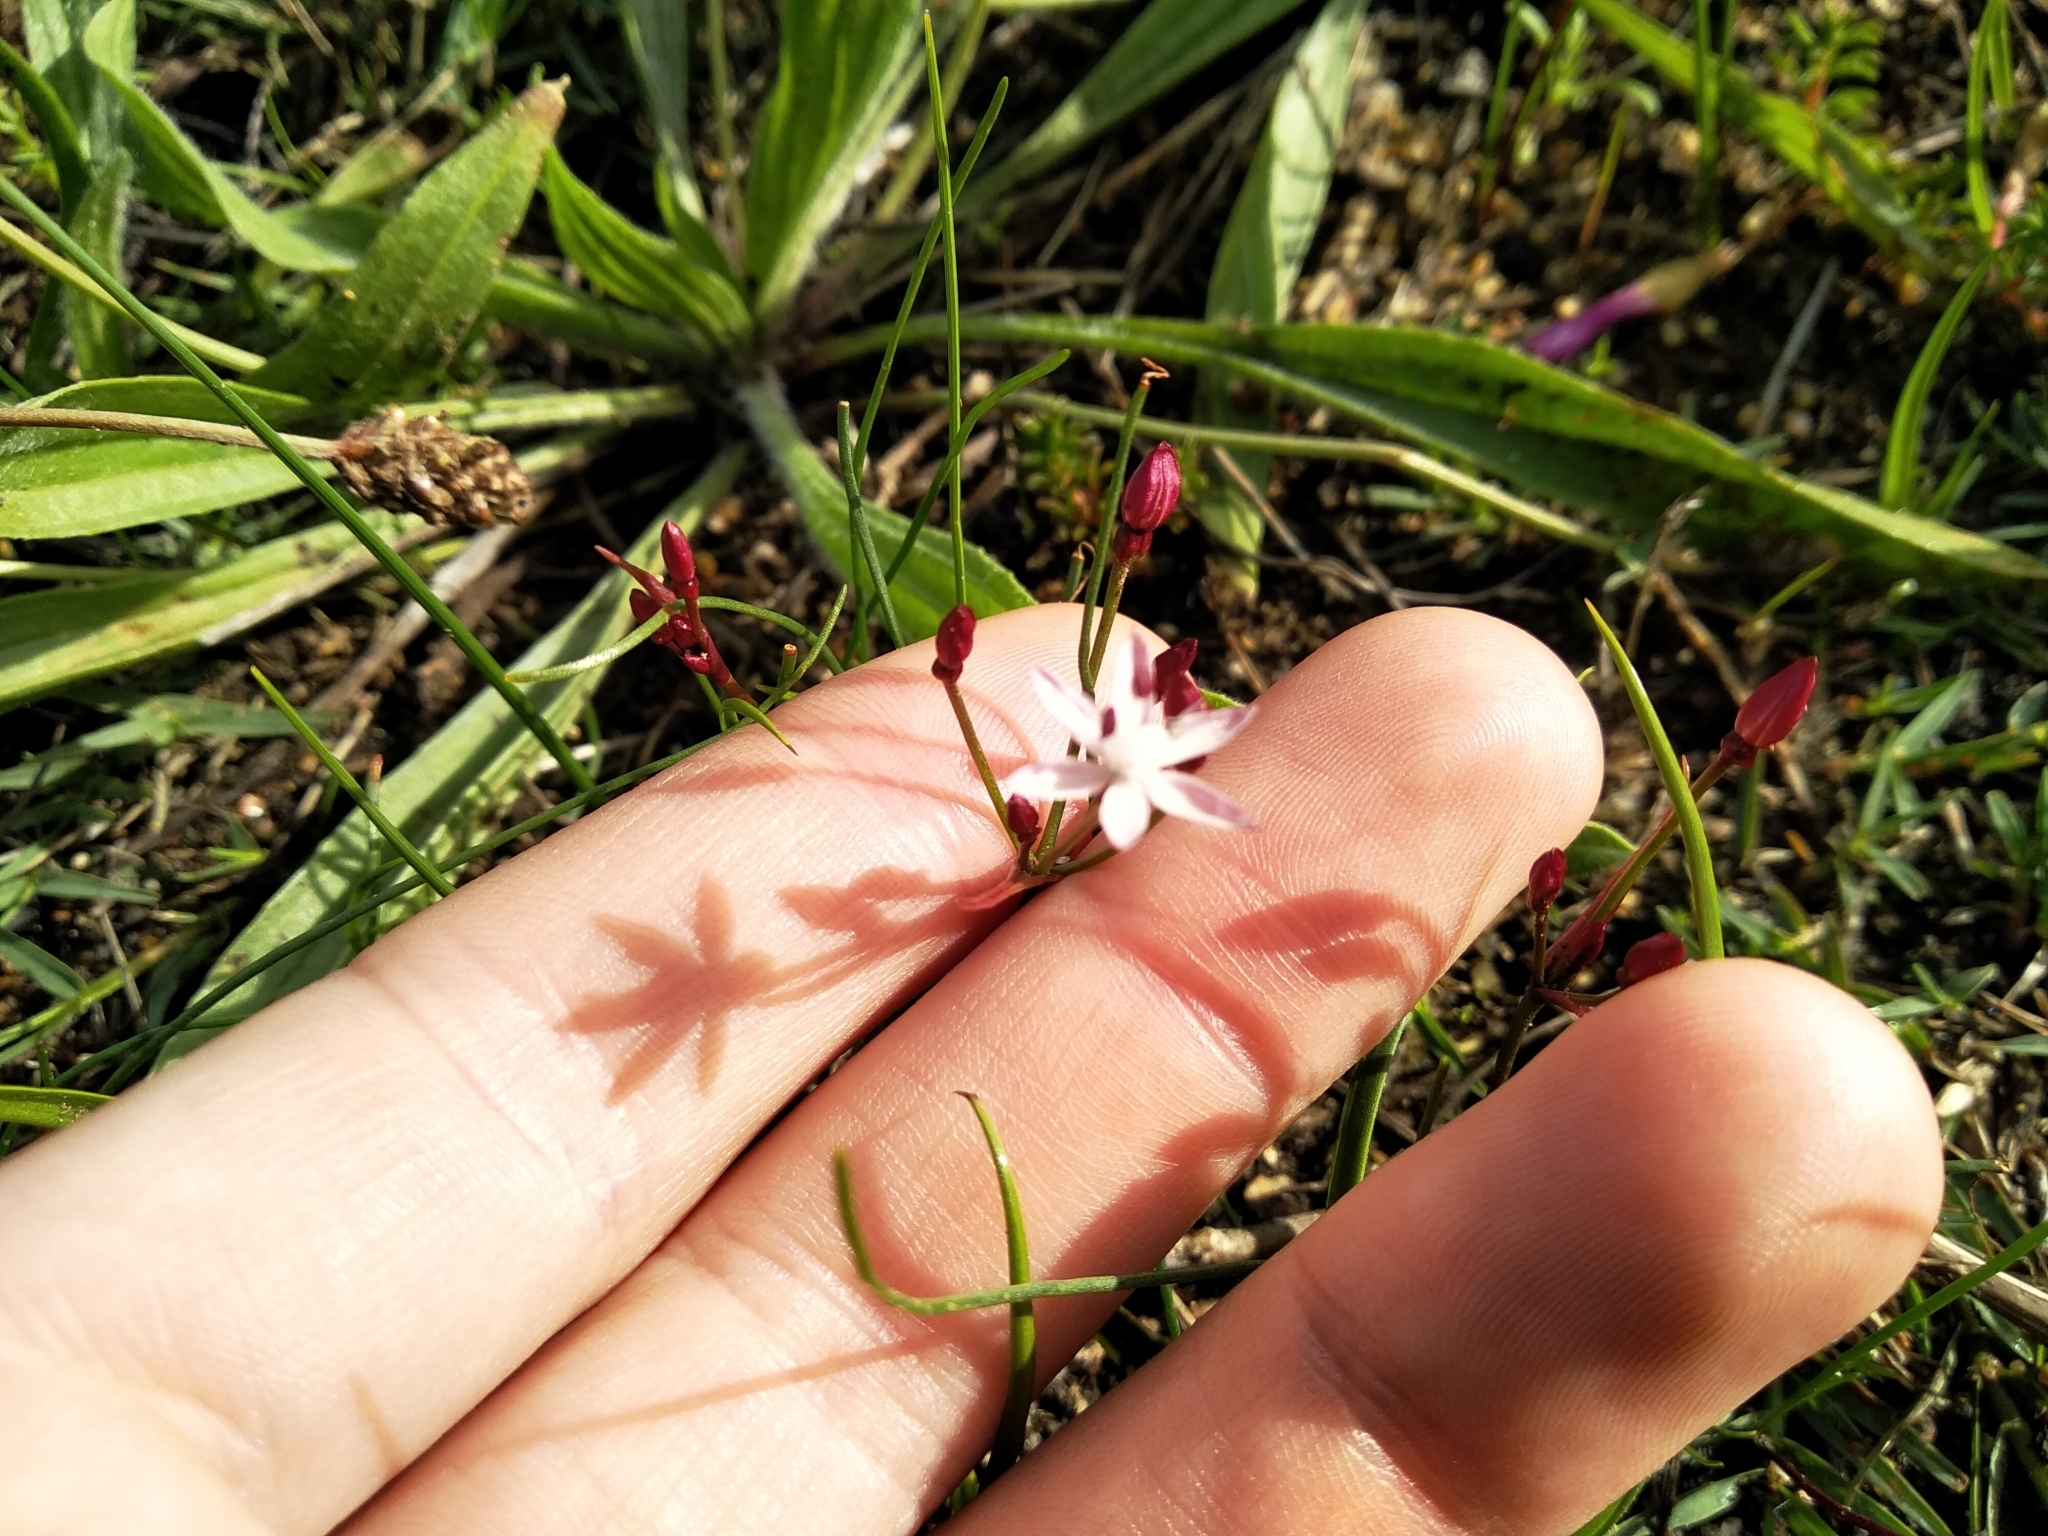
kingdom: Plantae
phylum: Tracheophyta
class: Liliopsida
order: Asparagales
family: Amaryllidaceae
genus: Strumaria
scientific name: Strumaria tenella
